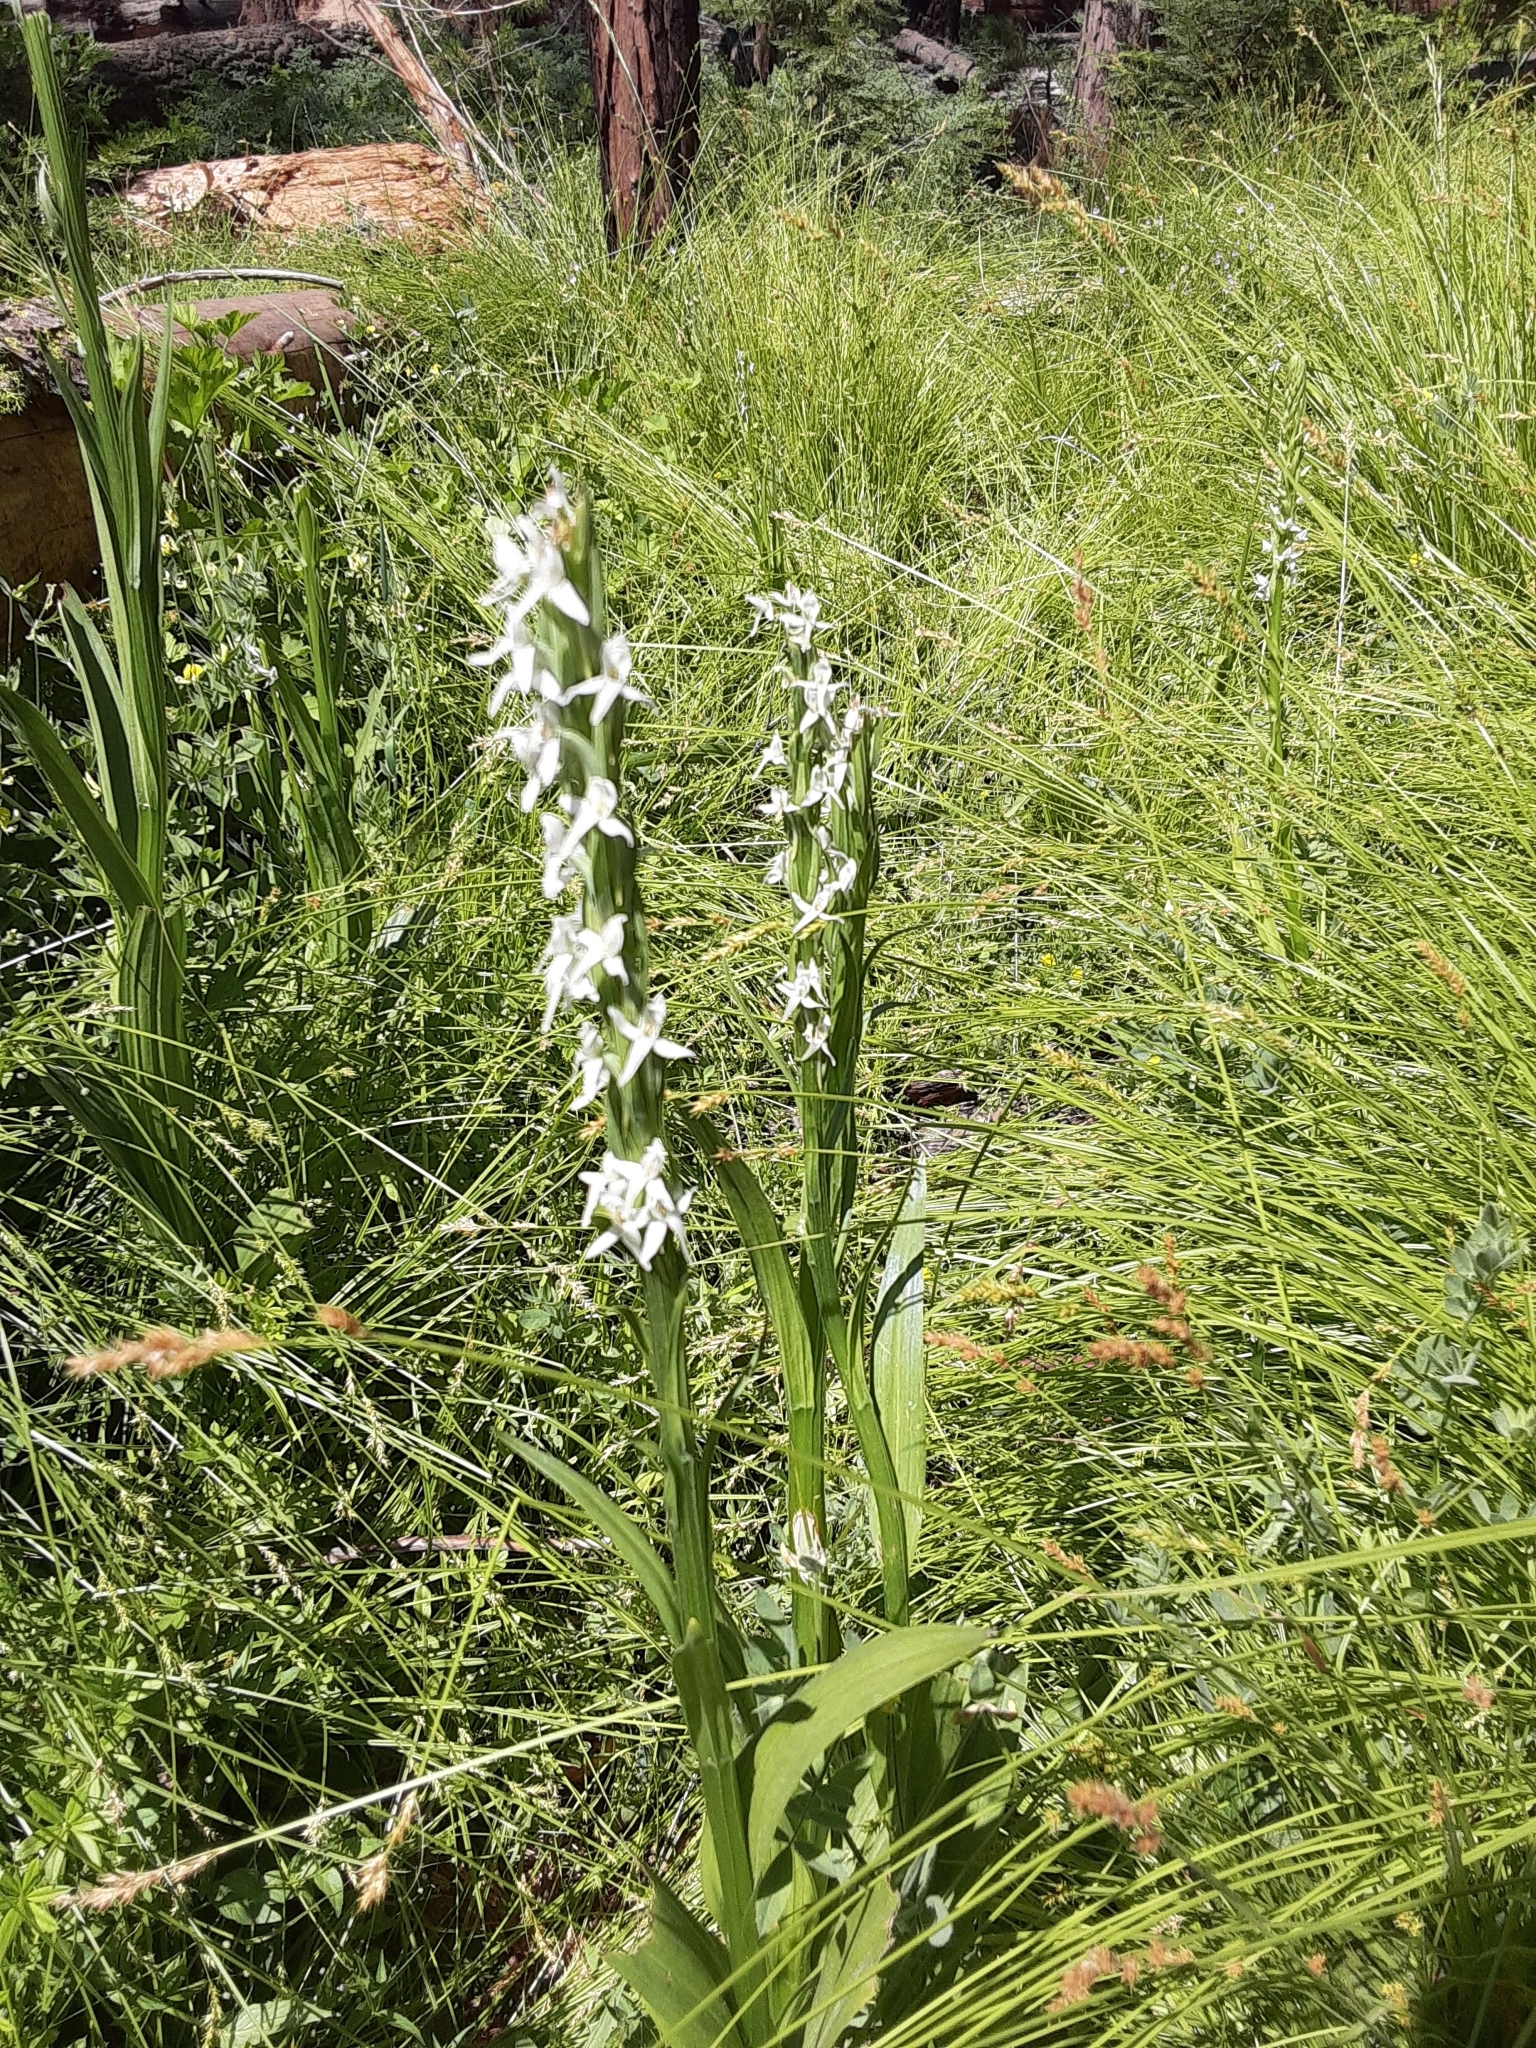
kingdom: Plantae
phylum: Tracheophyta
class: Liliopsida
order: Asparagales
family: Orchidaceae
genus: Platanthera
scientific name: Platanthera dilatata
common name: Bog candles
